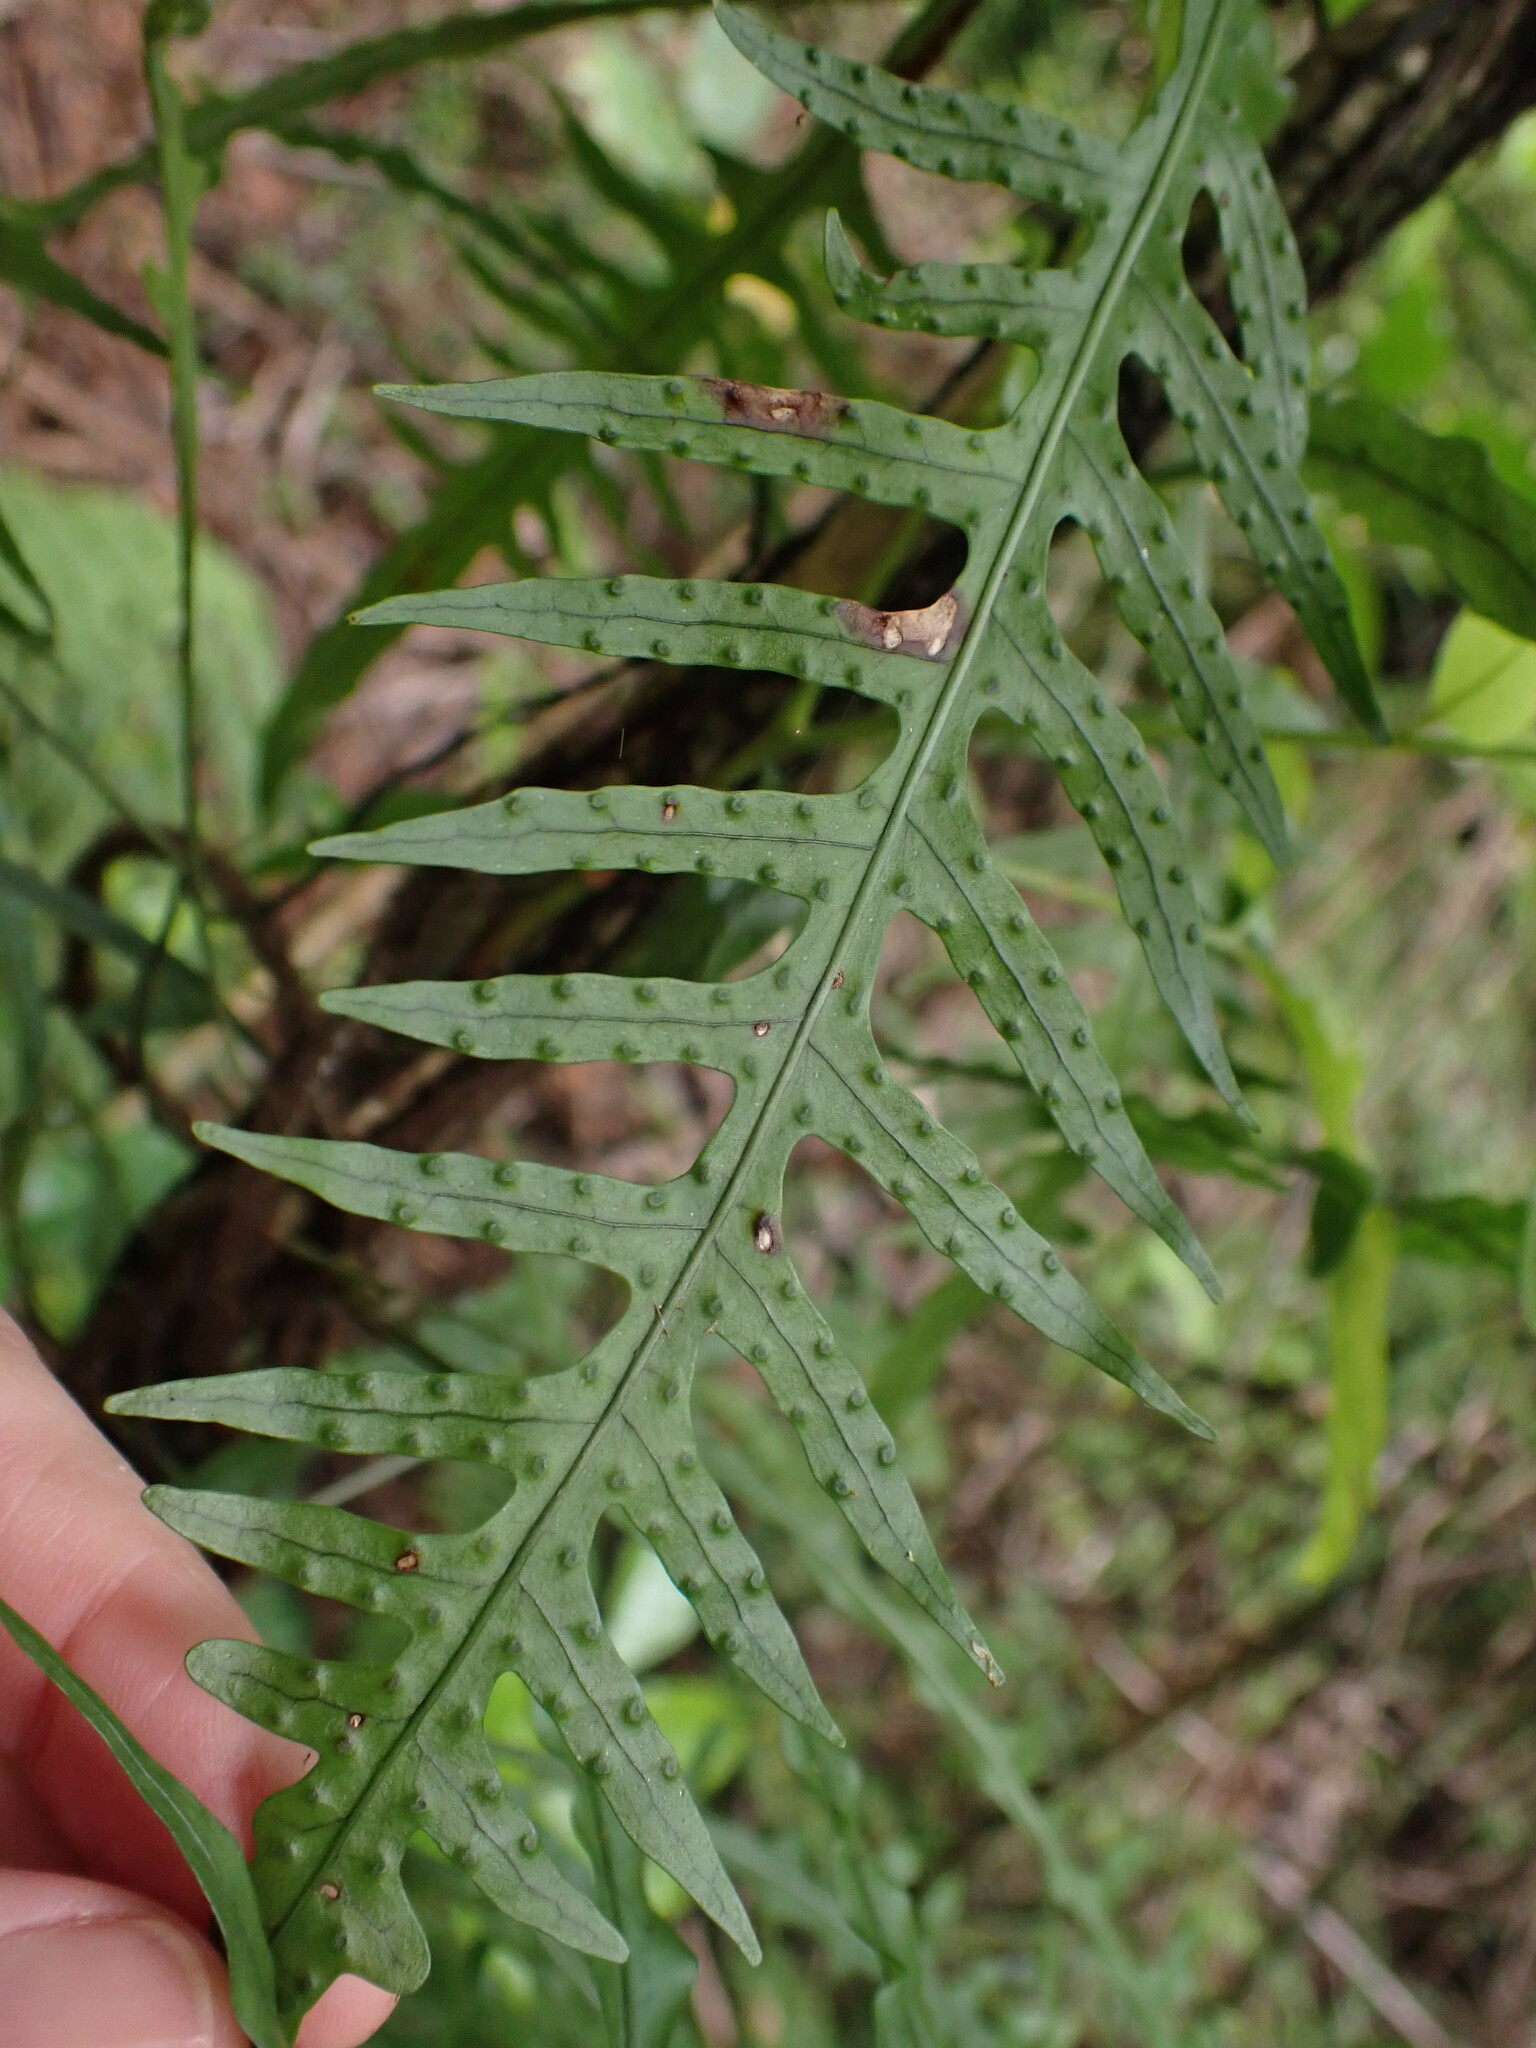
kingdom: Plantae
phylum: Tracheophyta
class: Polypodiopsida
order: Polypodiales
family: Polypodiaceae
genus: Lecanopteris
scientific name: Lecanopteris scandens
